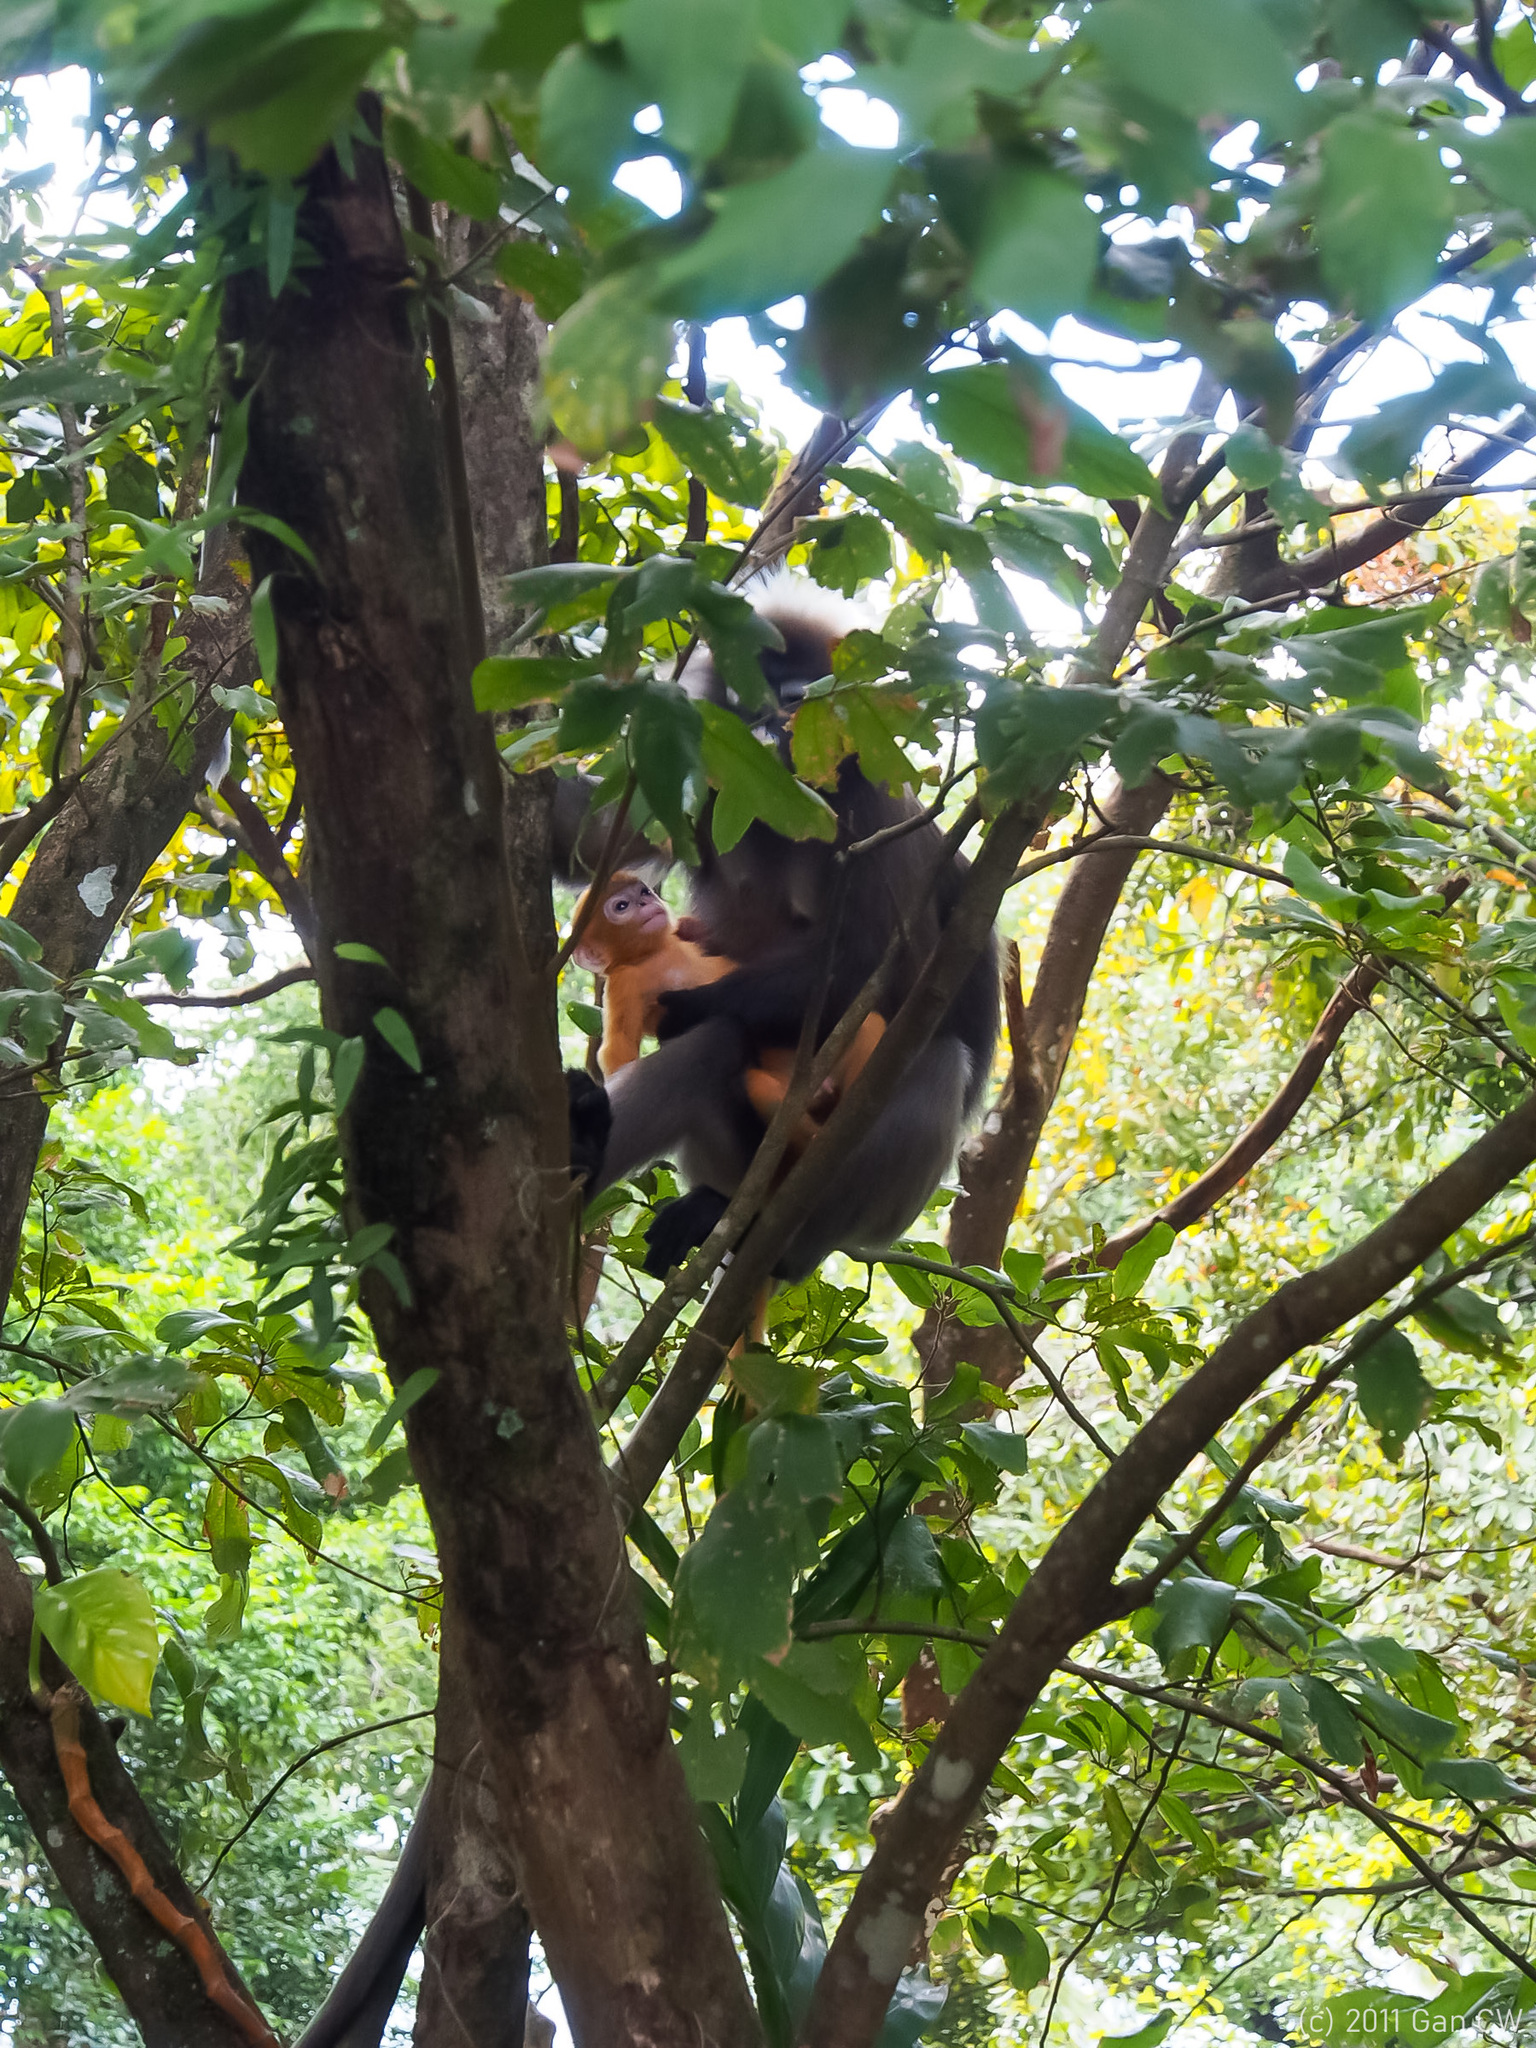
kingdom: Animalia
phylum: Chordata
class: Mammalia
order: Primates
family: Cercopithecidae
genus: Trachypithecus
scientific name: Trachypithecus obscurus
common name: Dusky leaf-monkey
